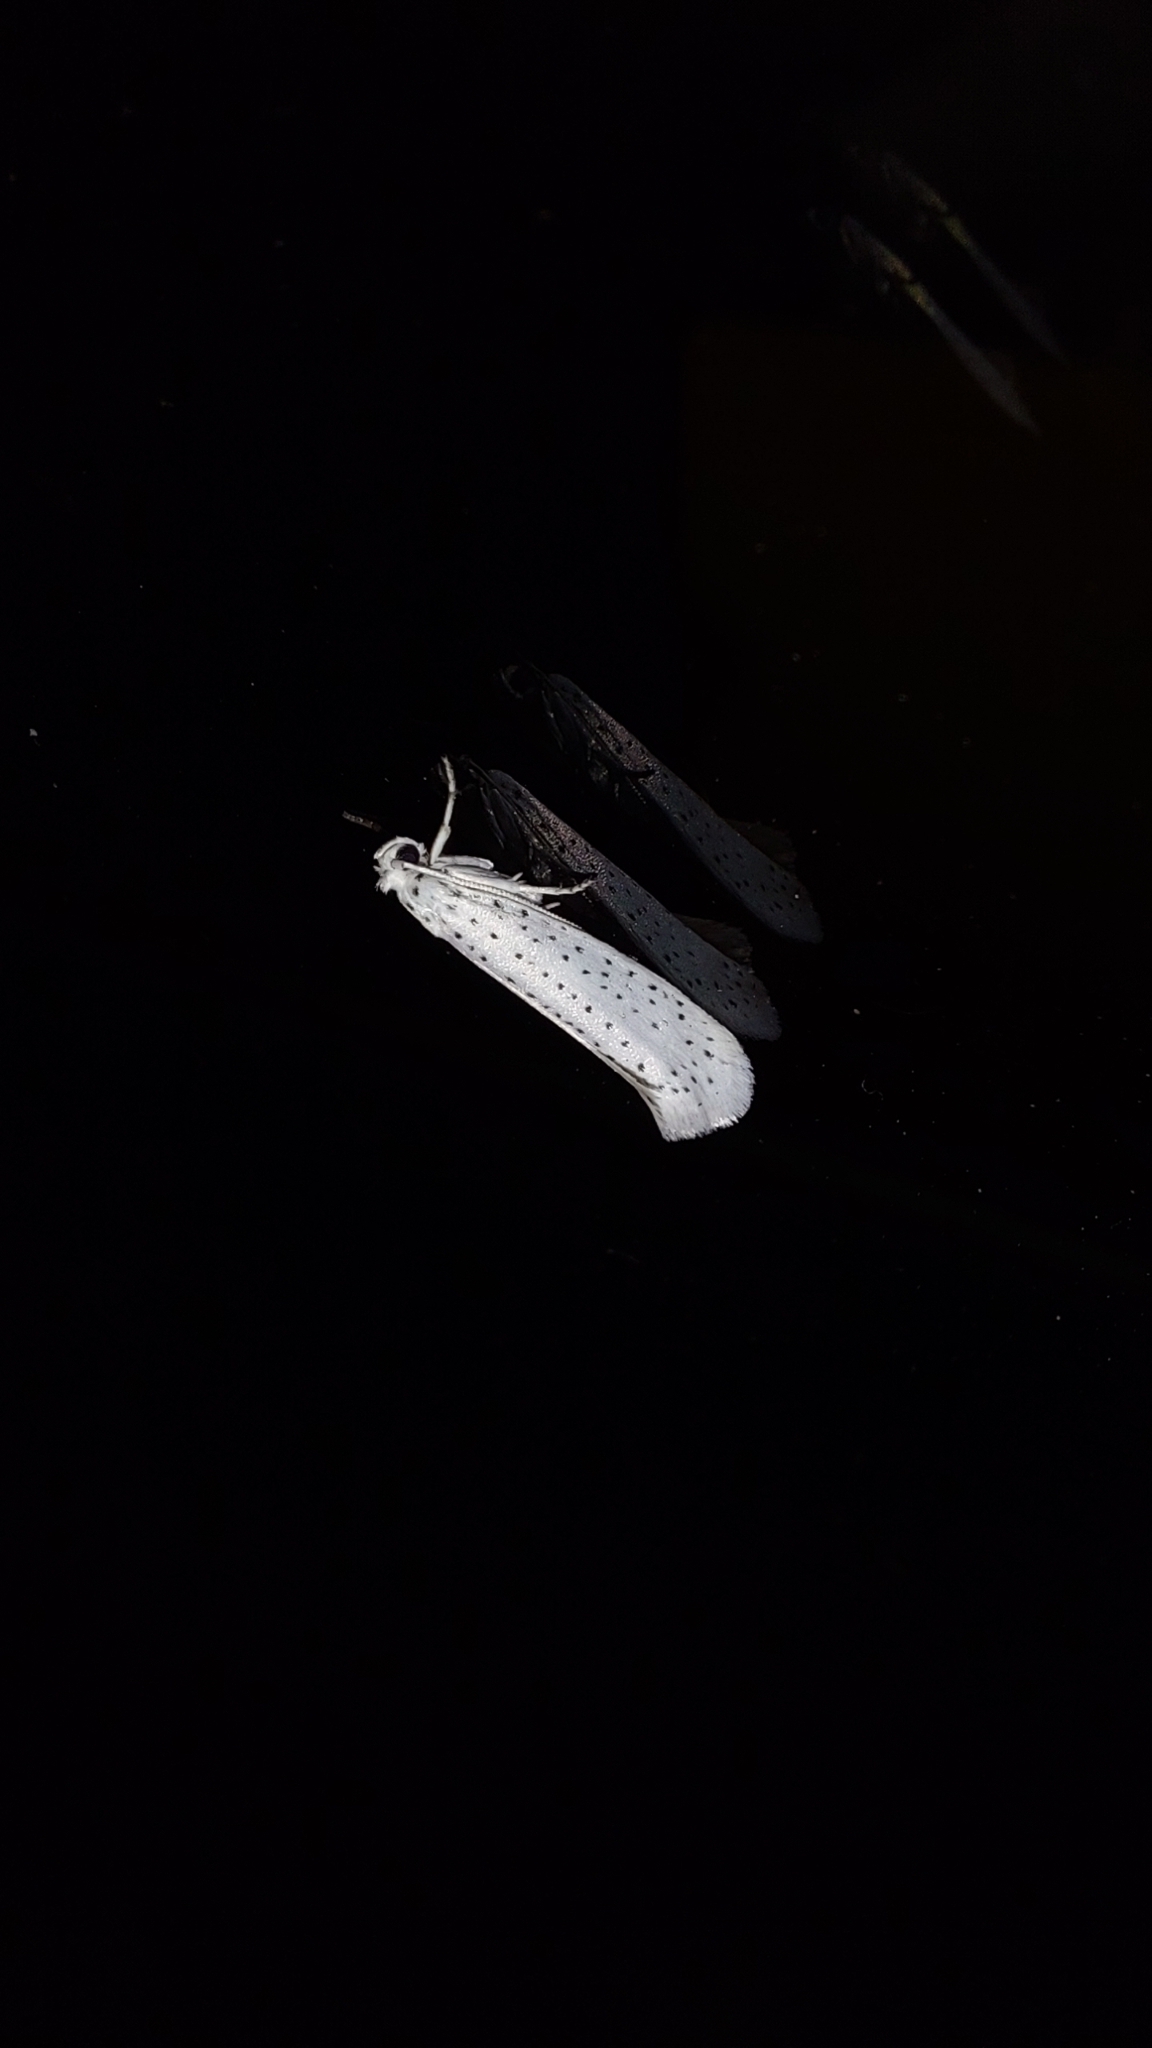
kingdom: Animalia
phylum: Arthropoda
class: Insecta
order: Lepidoptera
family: Yponomeutidae
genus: Yponomeuta
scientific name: Yponomeuta evonymella
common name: Bird-cherry ermine
